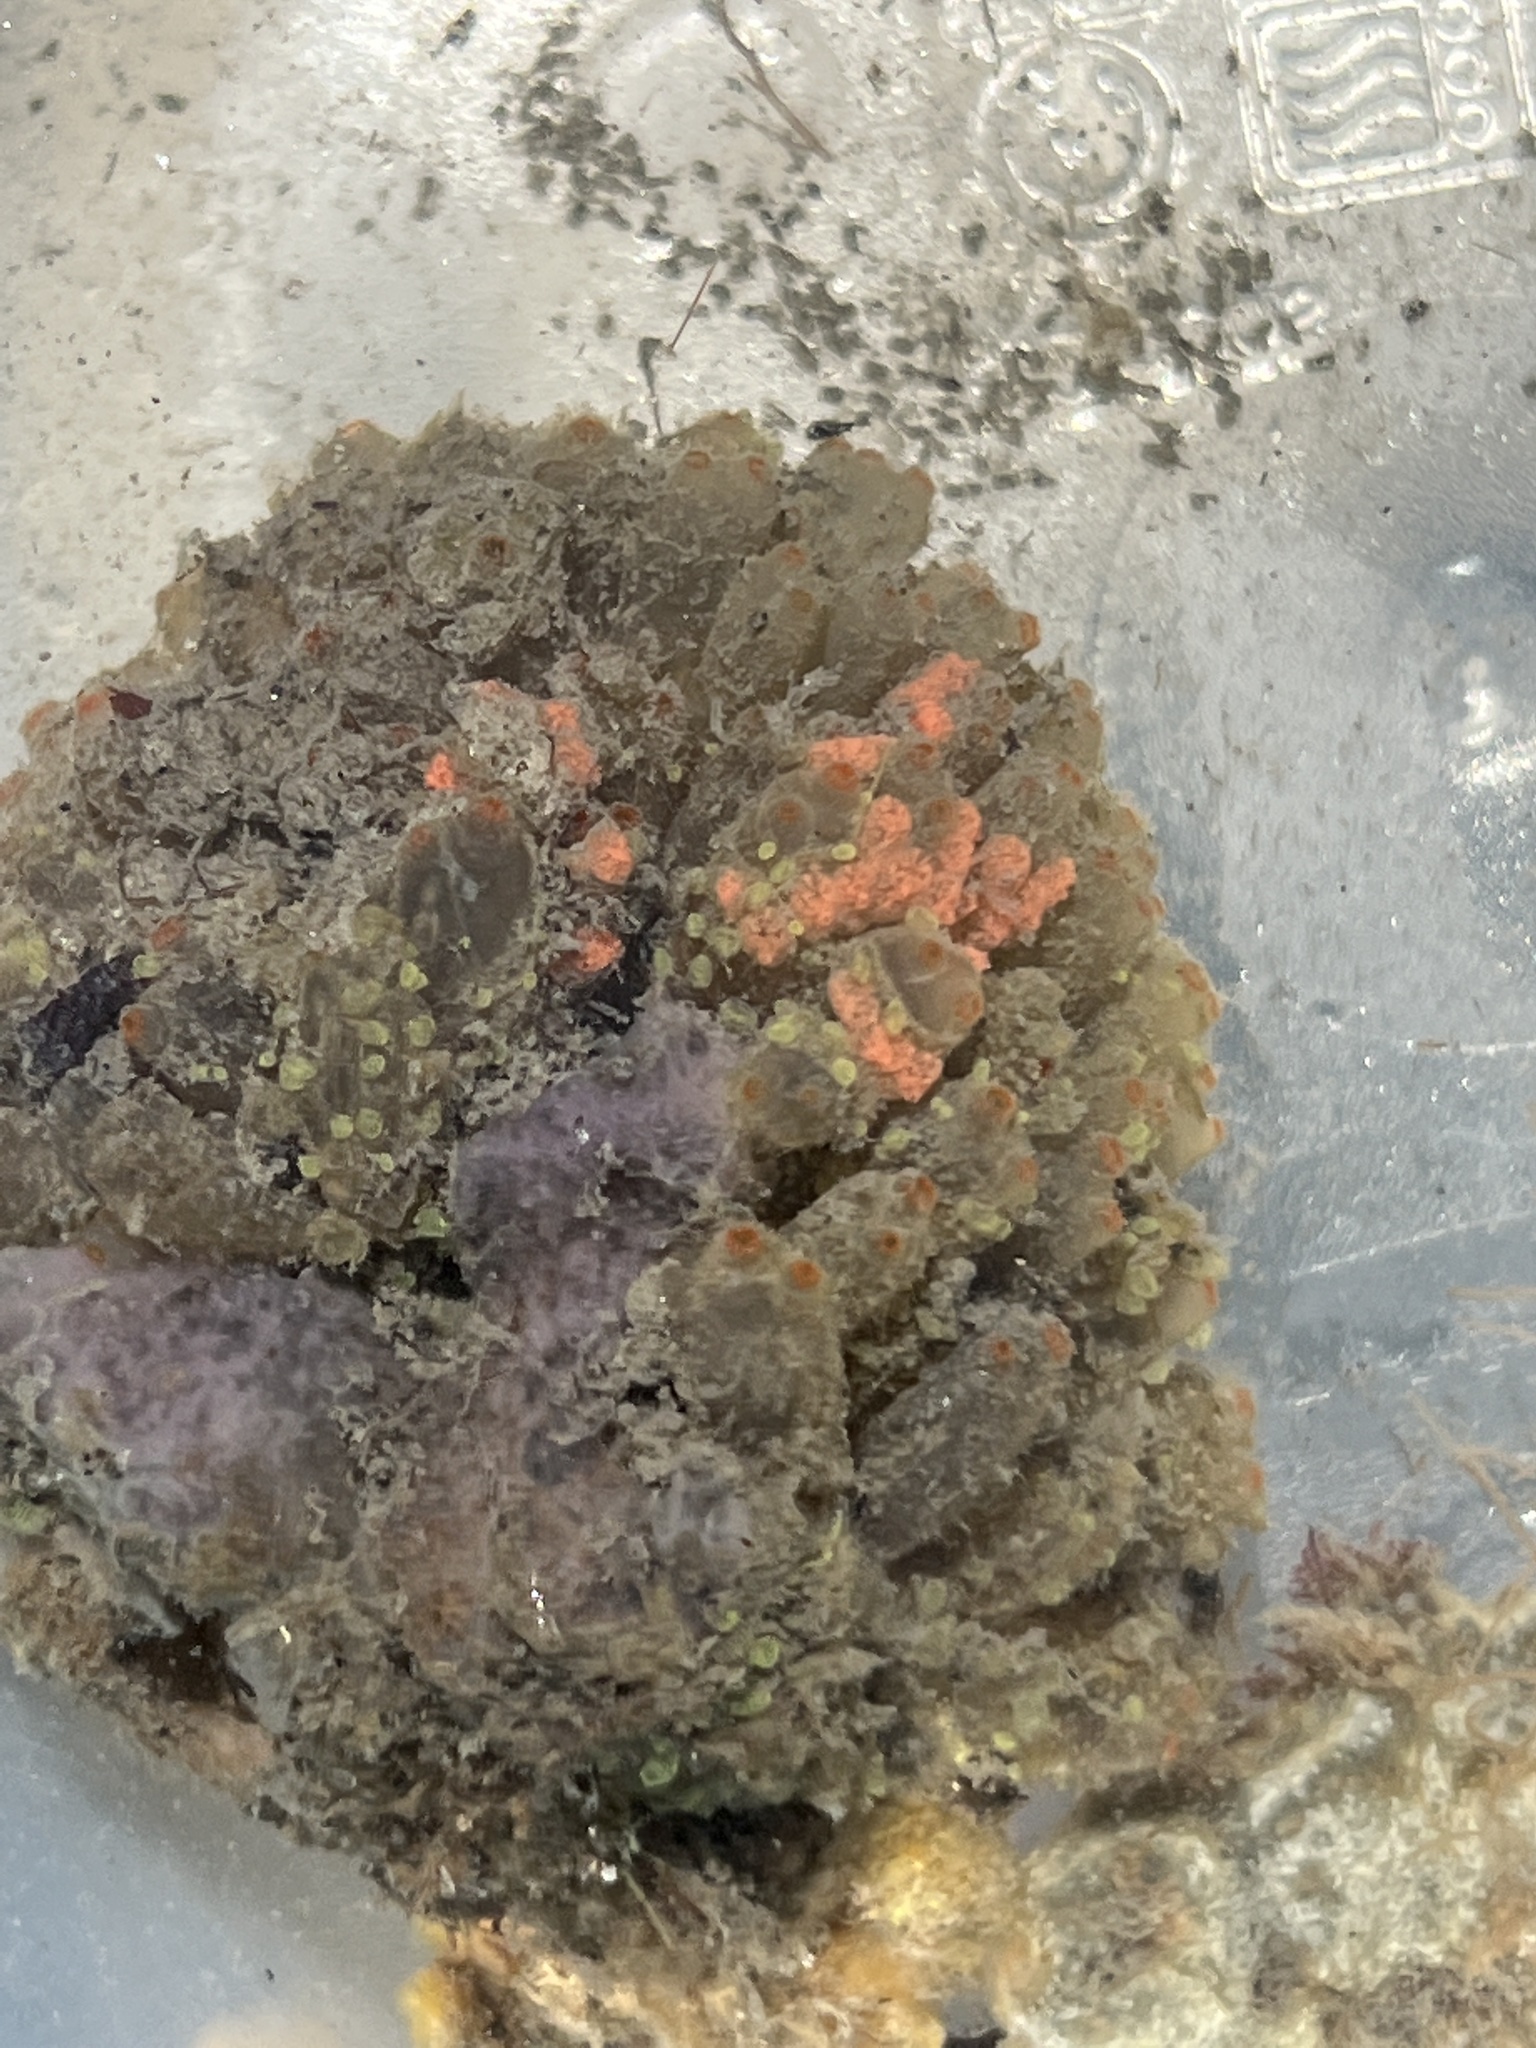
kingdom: Animalia
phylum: Chordata
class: Ascidiacea
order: Phlebobranchia
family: Perophoridae
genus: Ecteinascidia
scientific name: Ecteinascidia turbinata
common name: Mangrove tunicate
